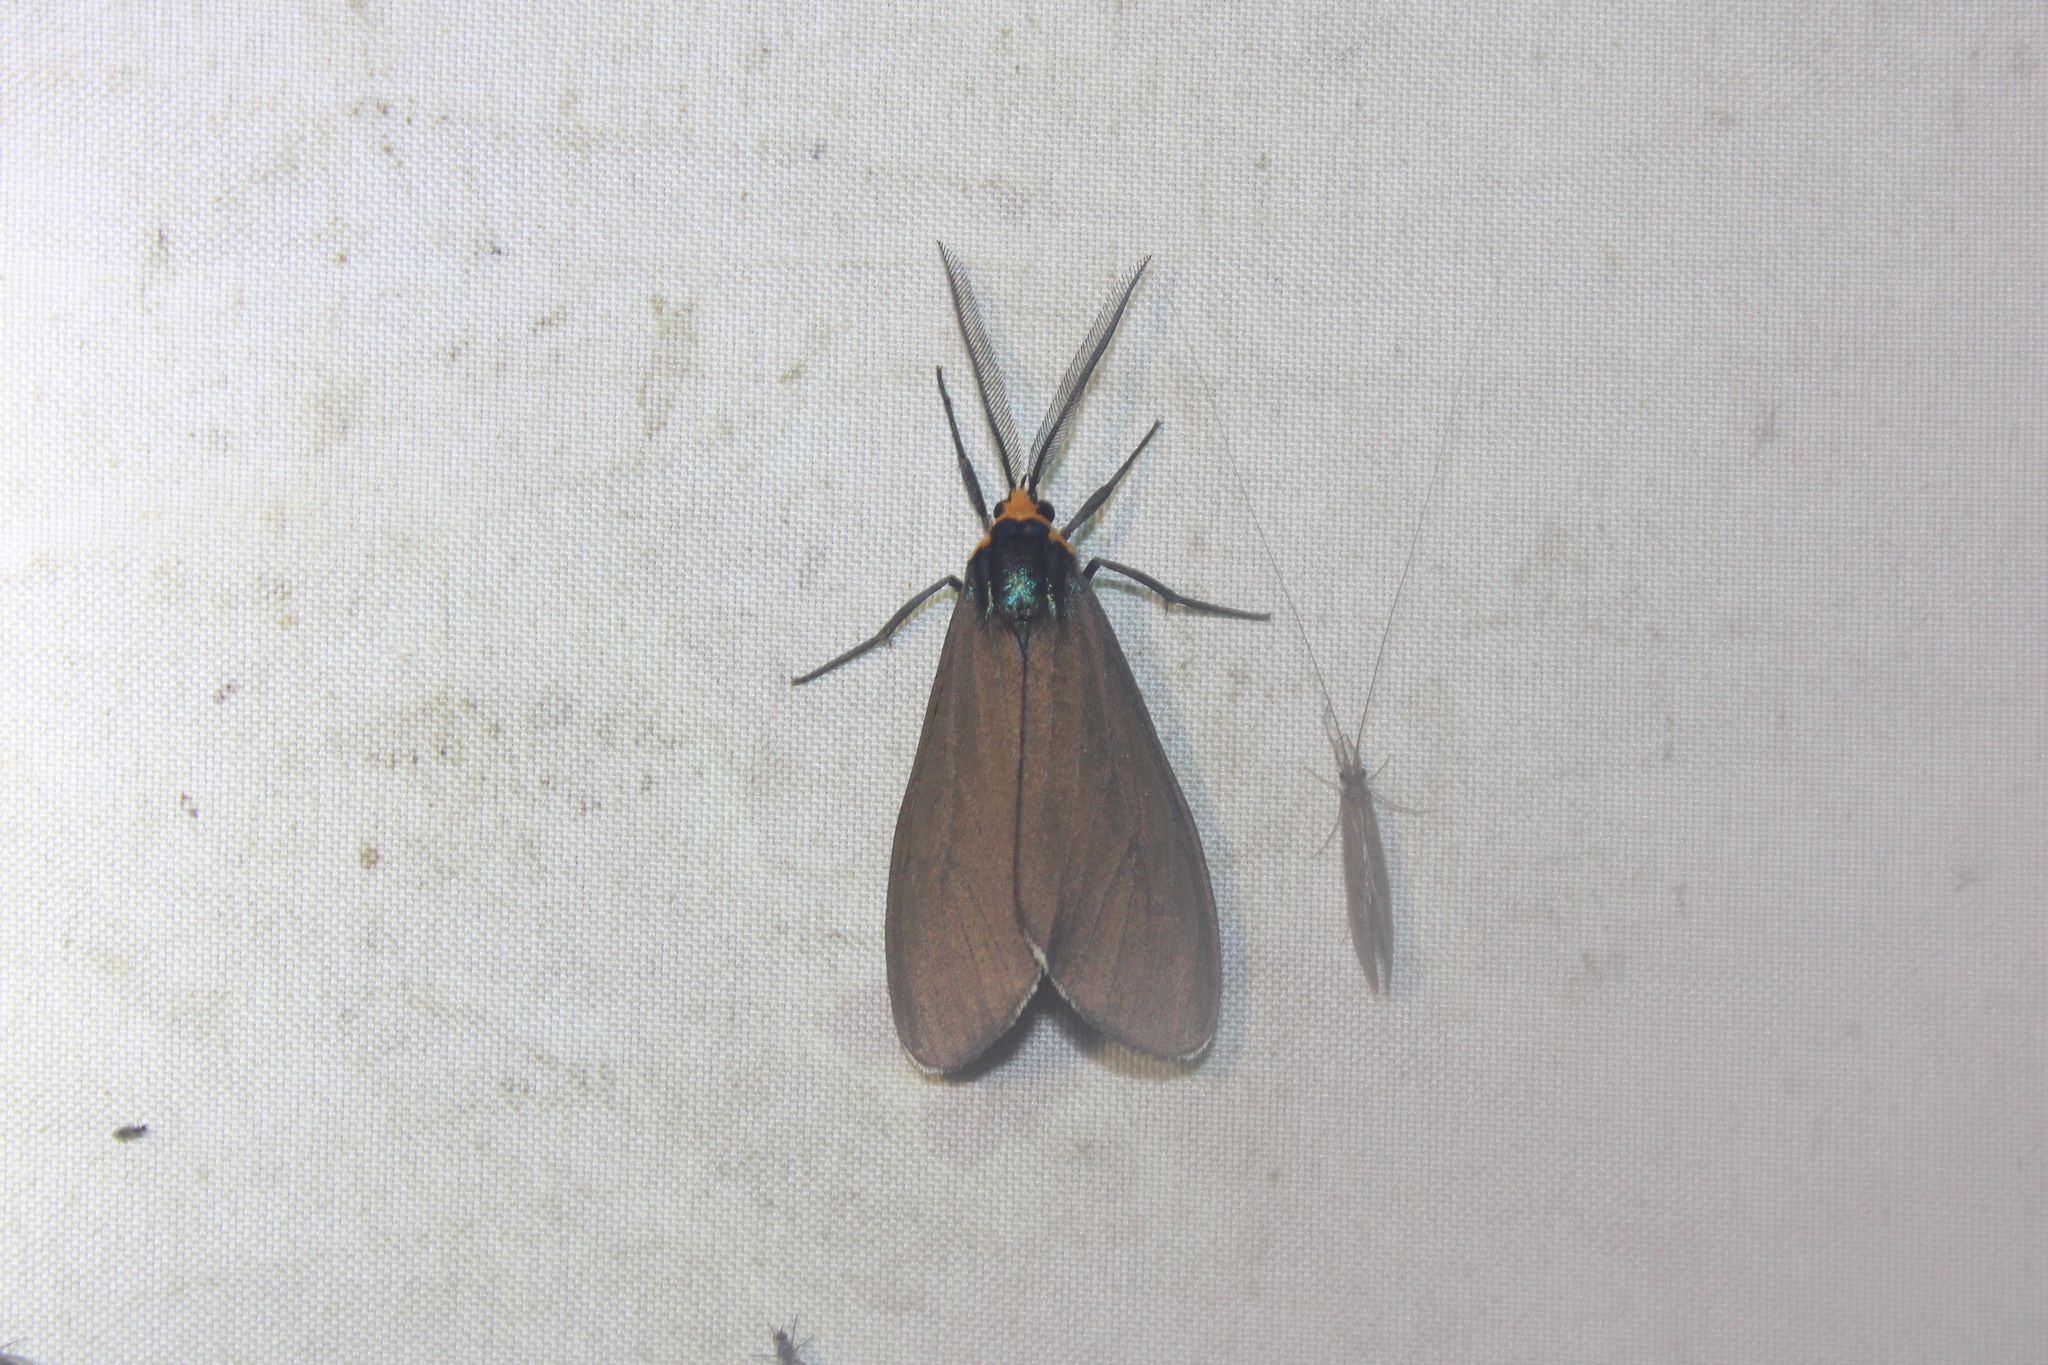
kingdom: Animalia
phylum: Arthropoda
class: Insecta
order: Lepidoptera
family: Erebidae
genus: Ctenucha
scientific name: Ctenucha virginica
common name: Virginia ctenucha moth
